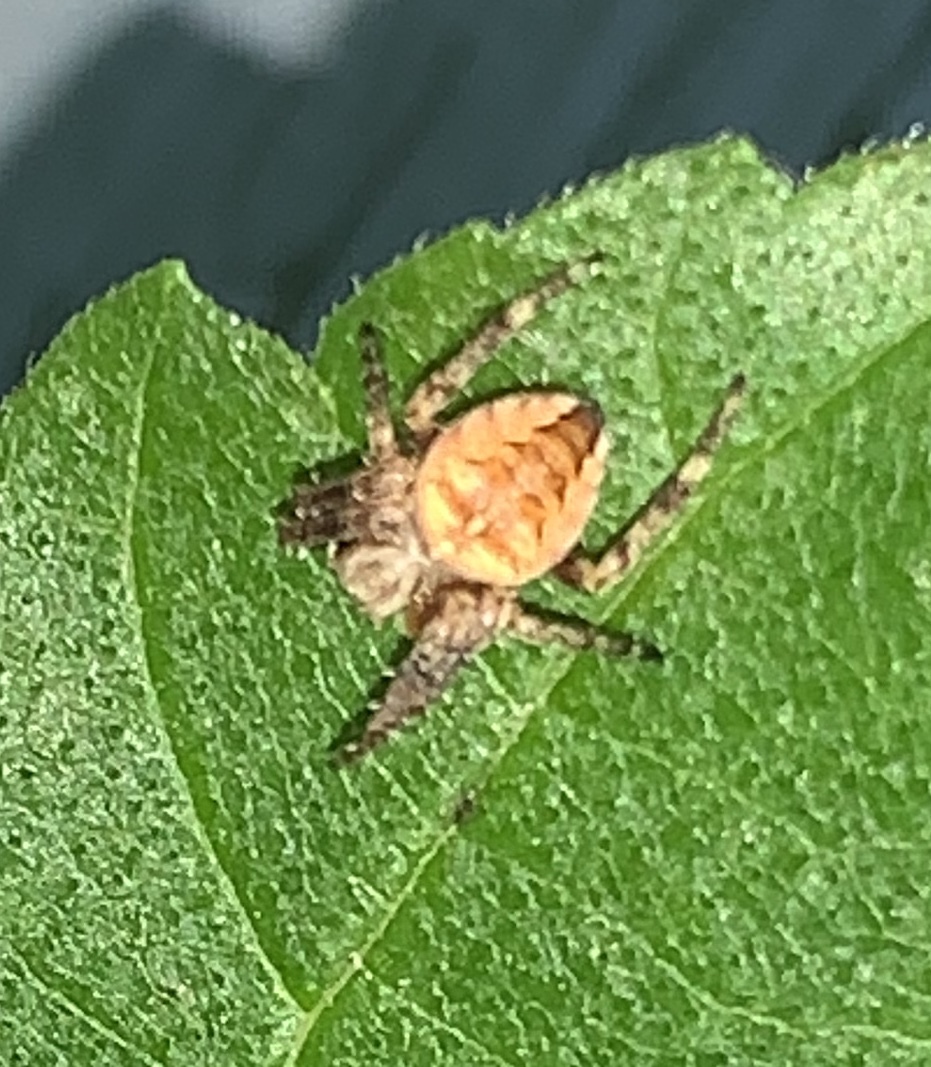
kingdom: Animalia
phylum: Arthropoda
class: Arachnida
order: Araneae
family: Araneidae
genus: Araneus
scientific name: Araneus diadematus
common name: Cross orbweaver
